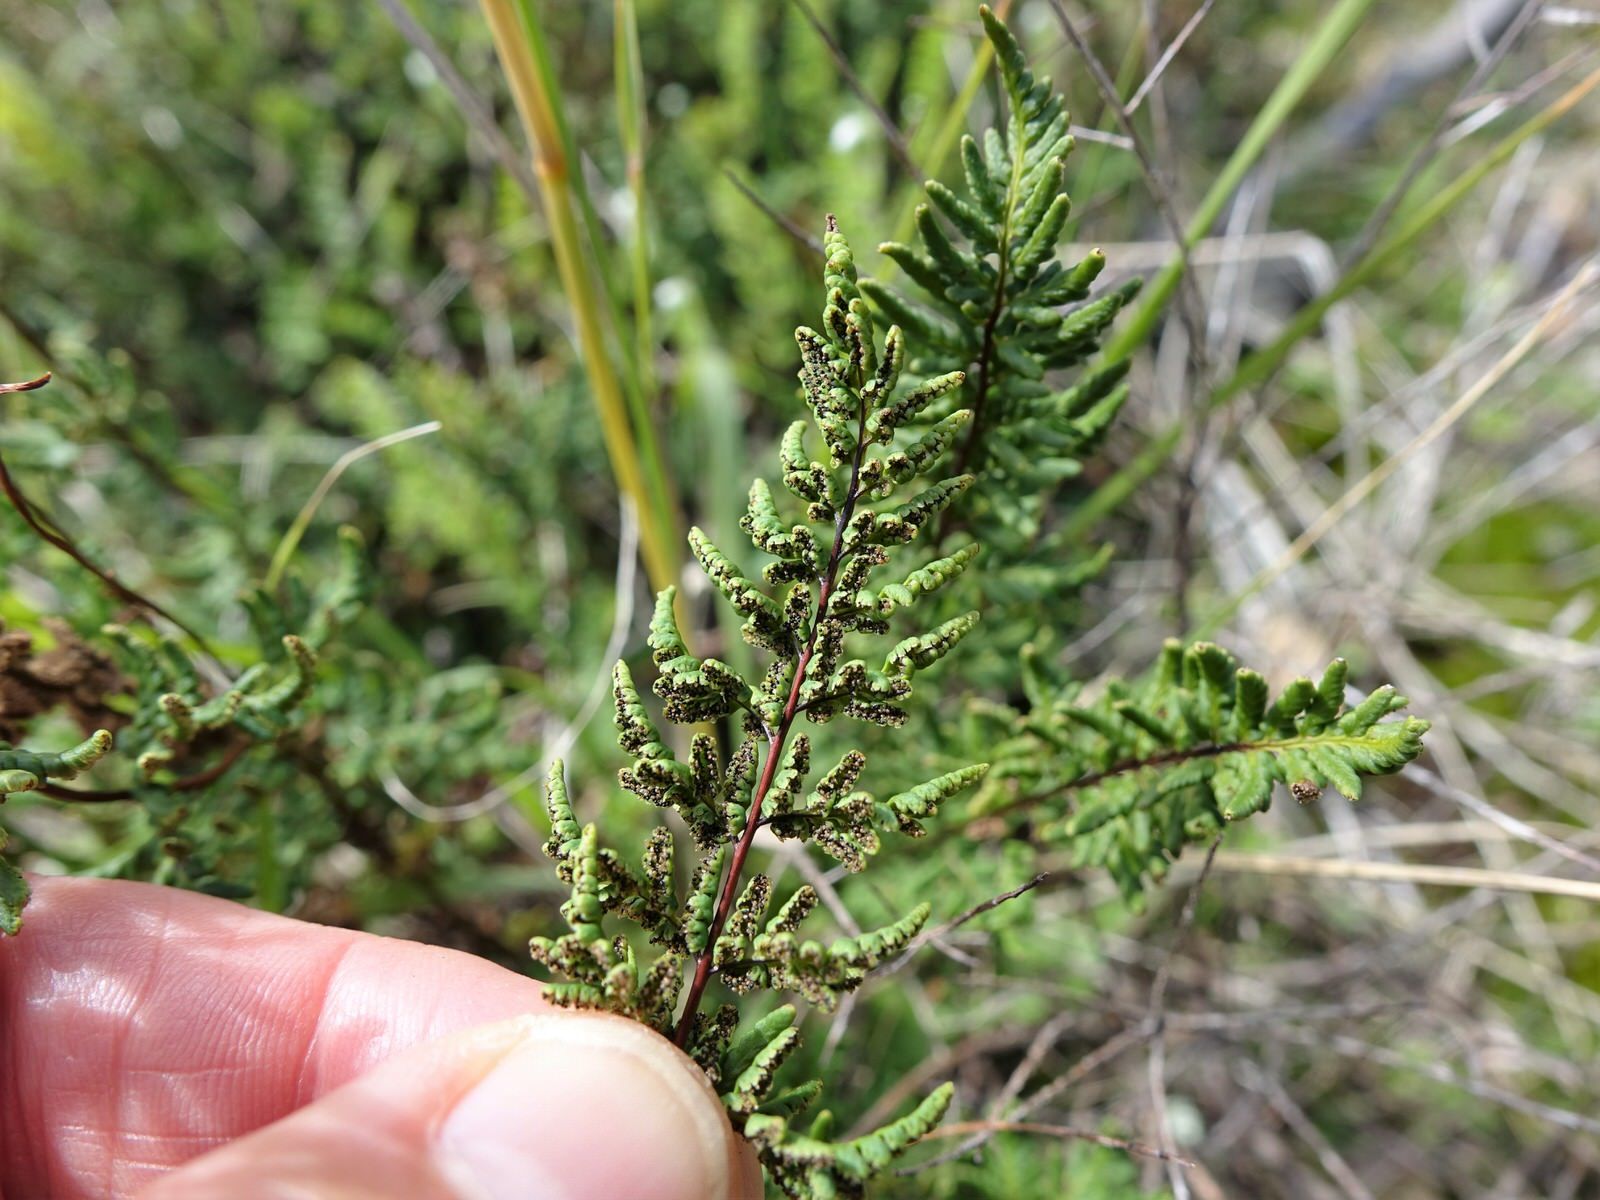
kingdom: Plantae
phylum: Tracheophyta
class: Polypodiopsida
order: Polypodiales
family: Pteridaceae
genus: Cheilanthes
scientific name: Cheilanthes sieberi
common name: Mulga fern
